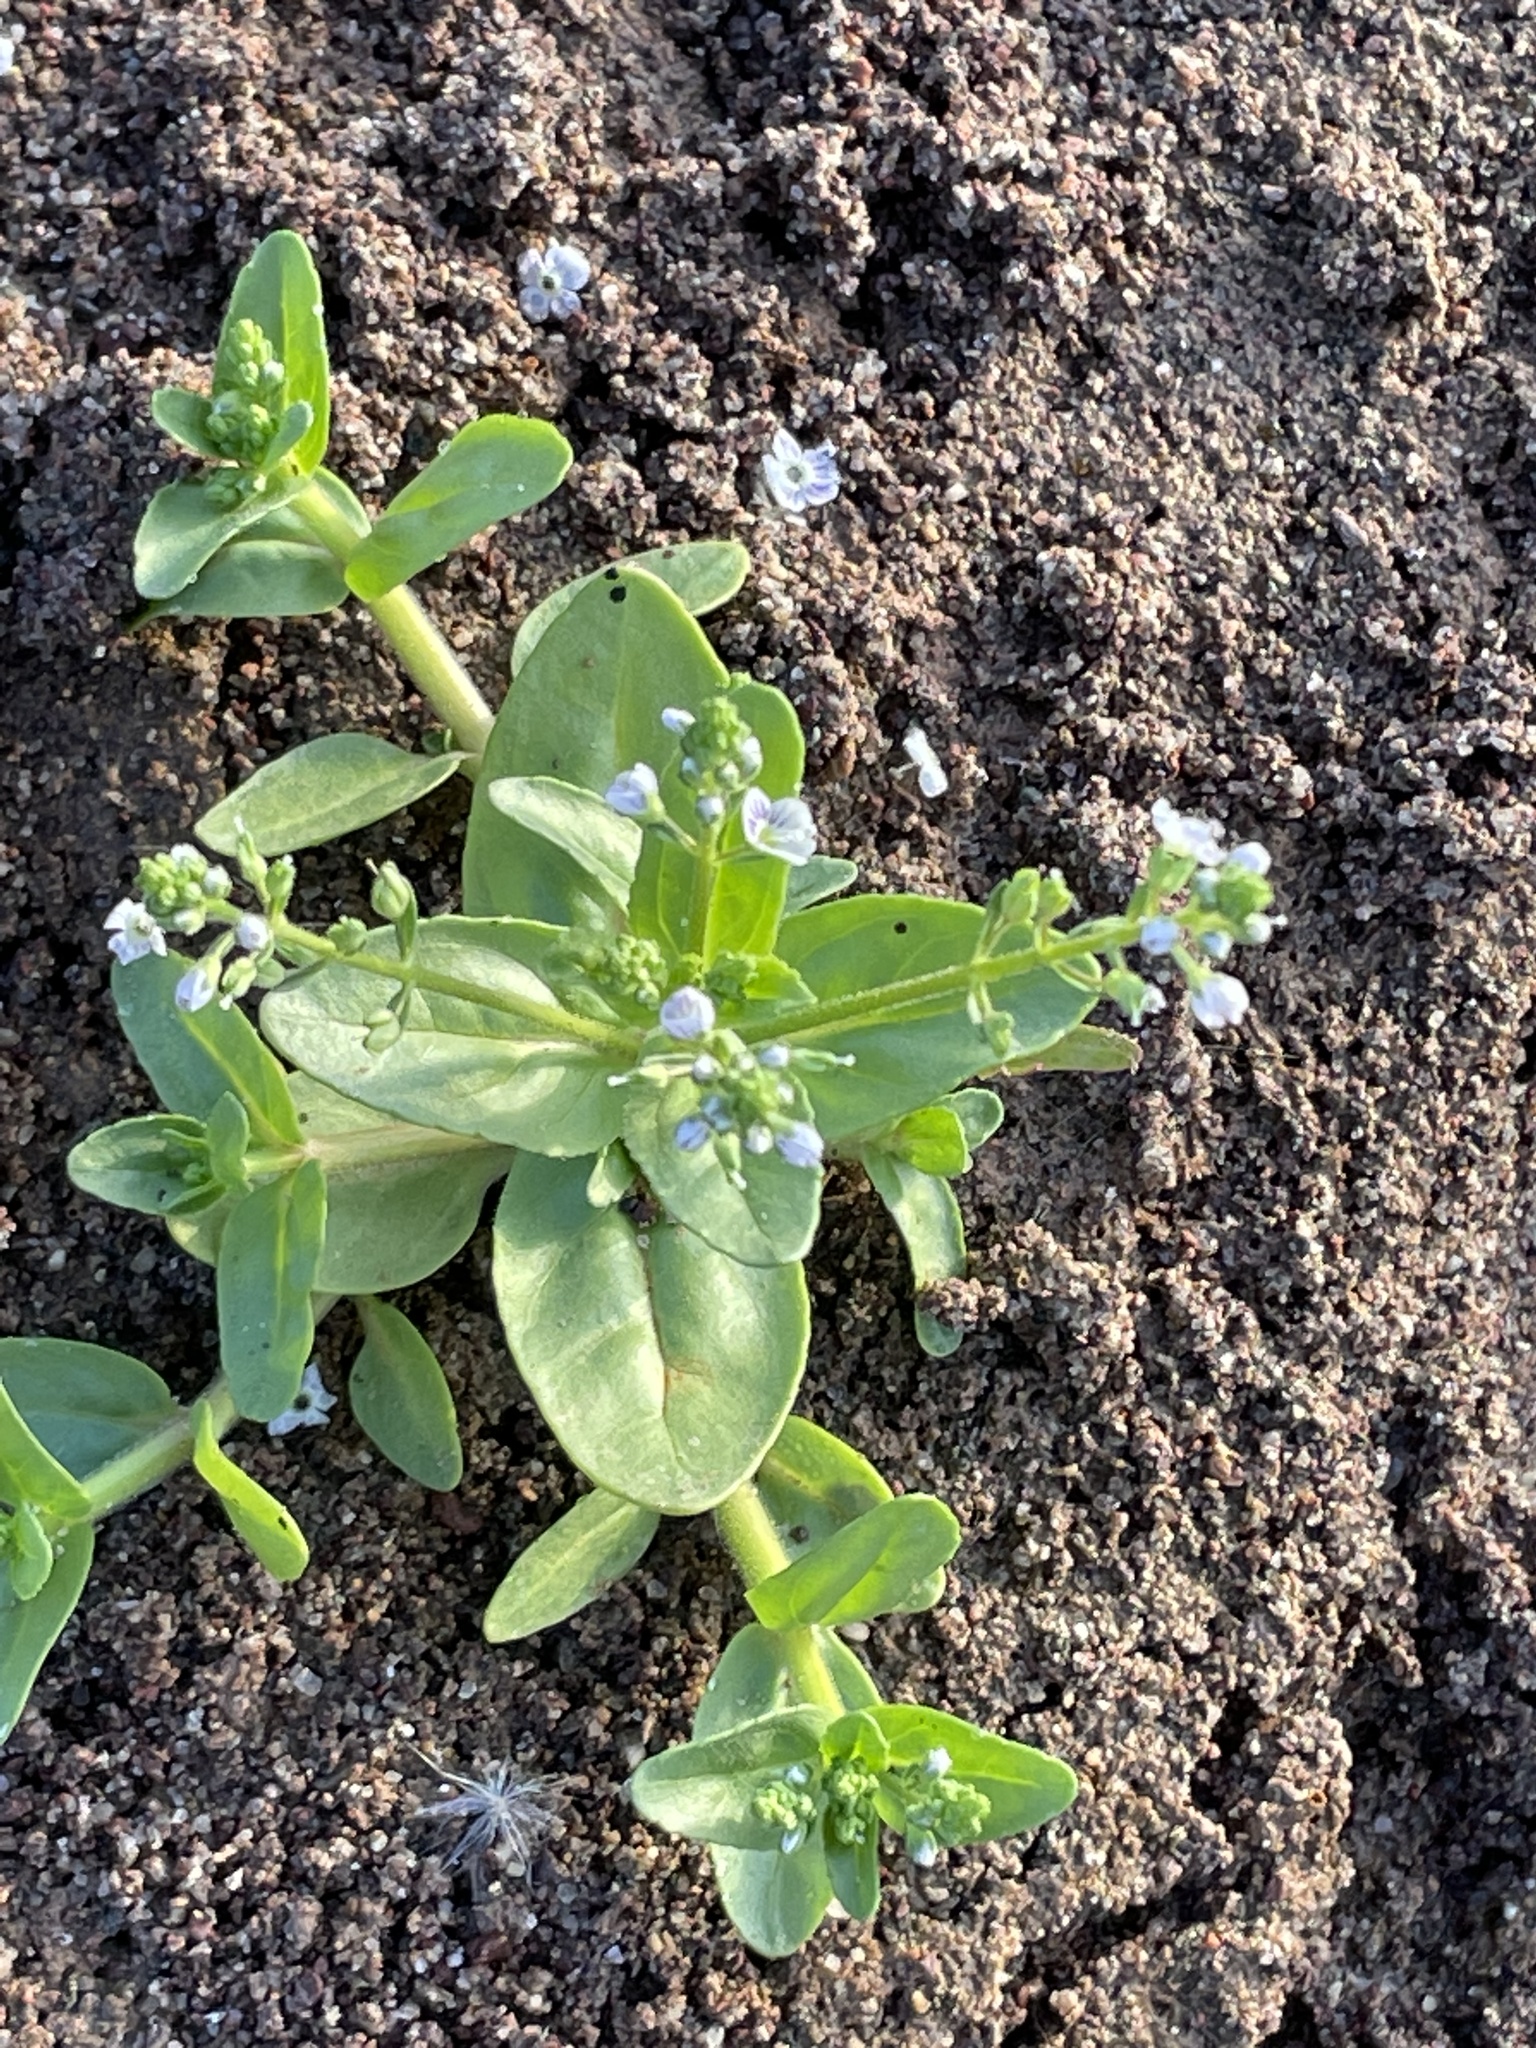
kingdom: Plantae
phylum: Tracheophyta
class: Magnoliopsida
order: Lamiales
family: Plantaginaceae
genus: Veronica
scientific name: Veronica anagallis-aquatica
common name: Water speedwell
